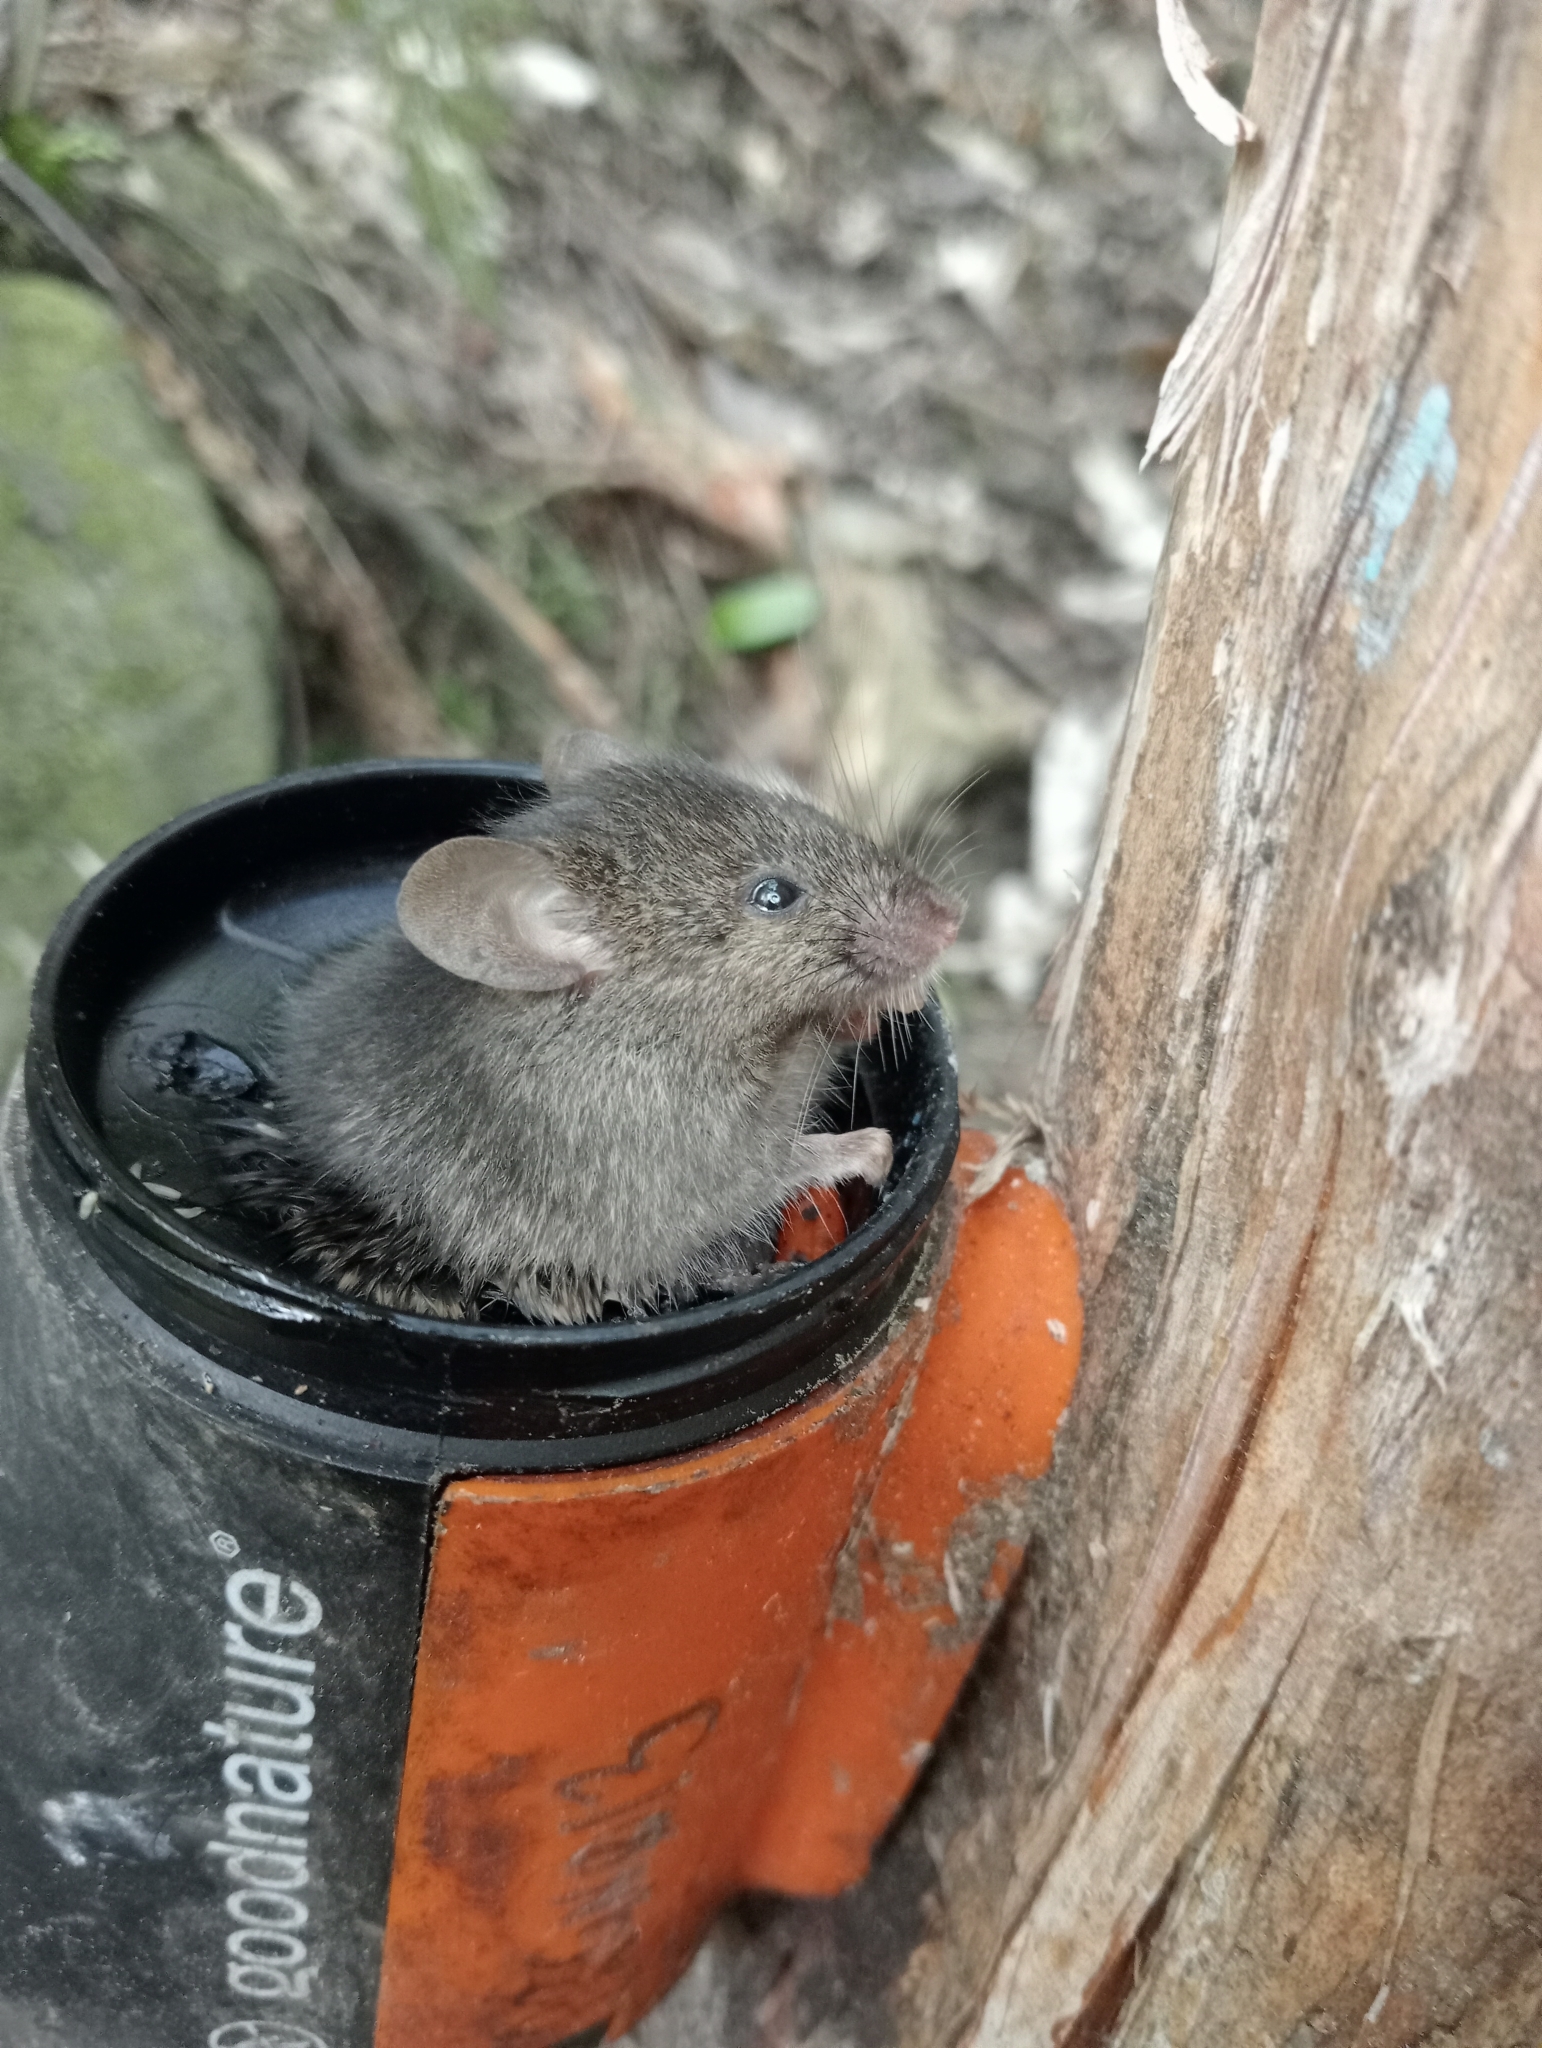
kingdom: Animalia
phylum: Chordata
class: Mammalia
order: Rodentia
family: Muridae
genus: Mus
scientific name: Mus musculus
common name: House mouse
